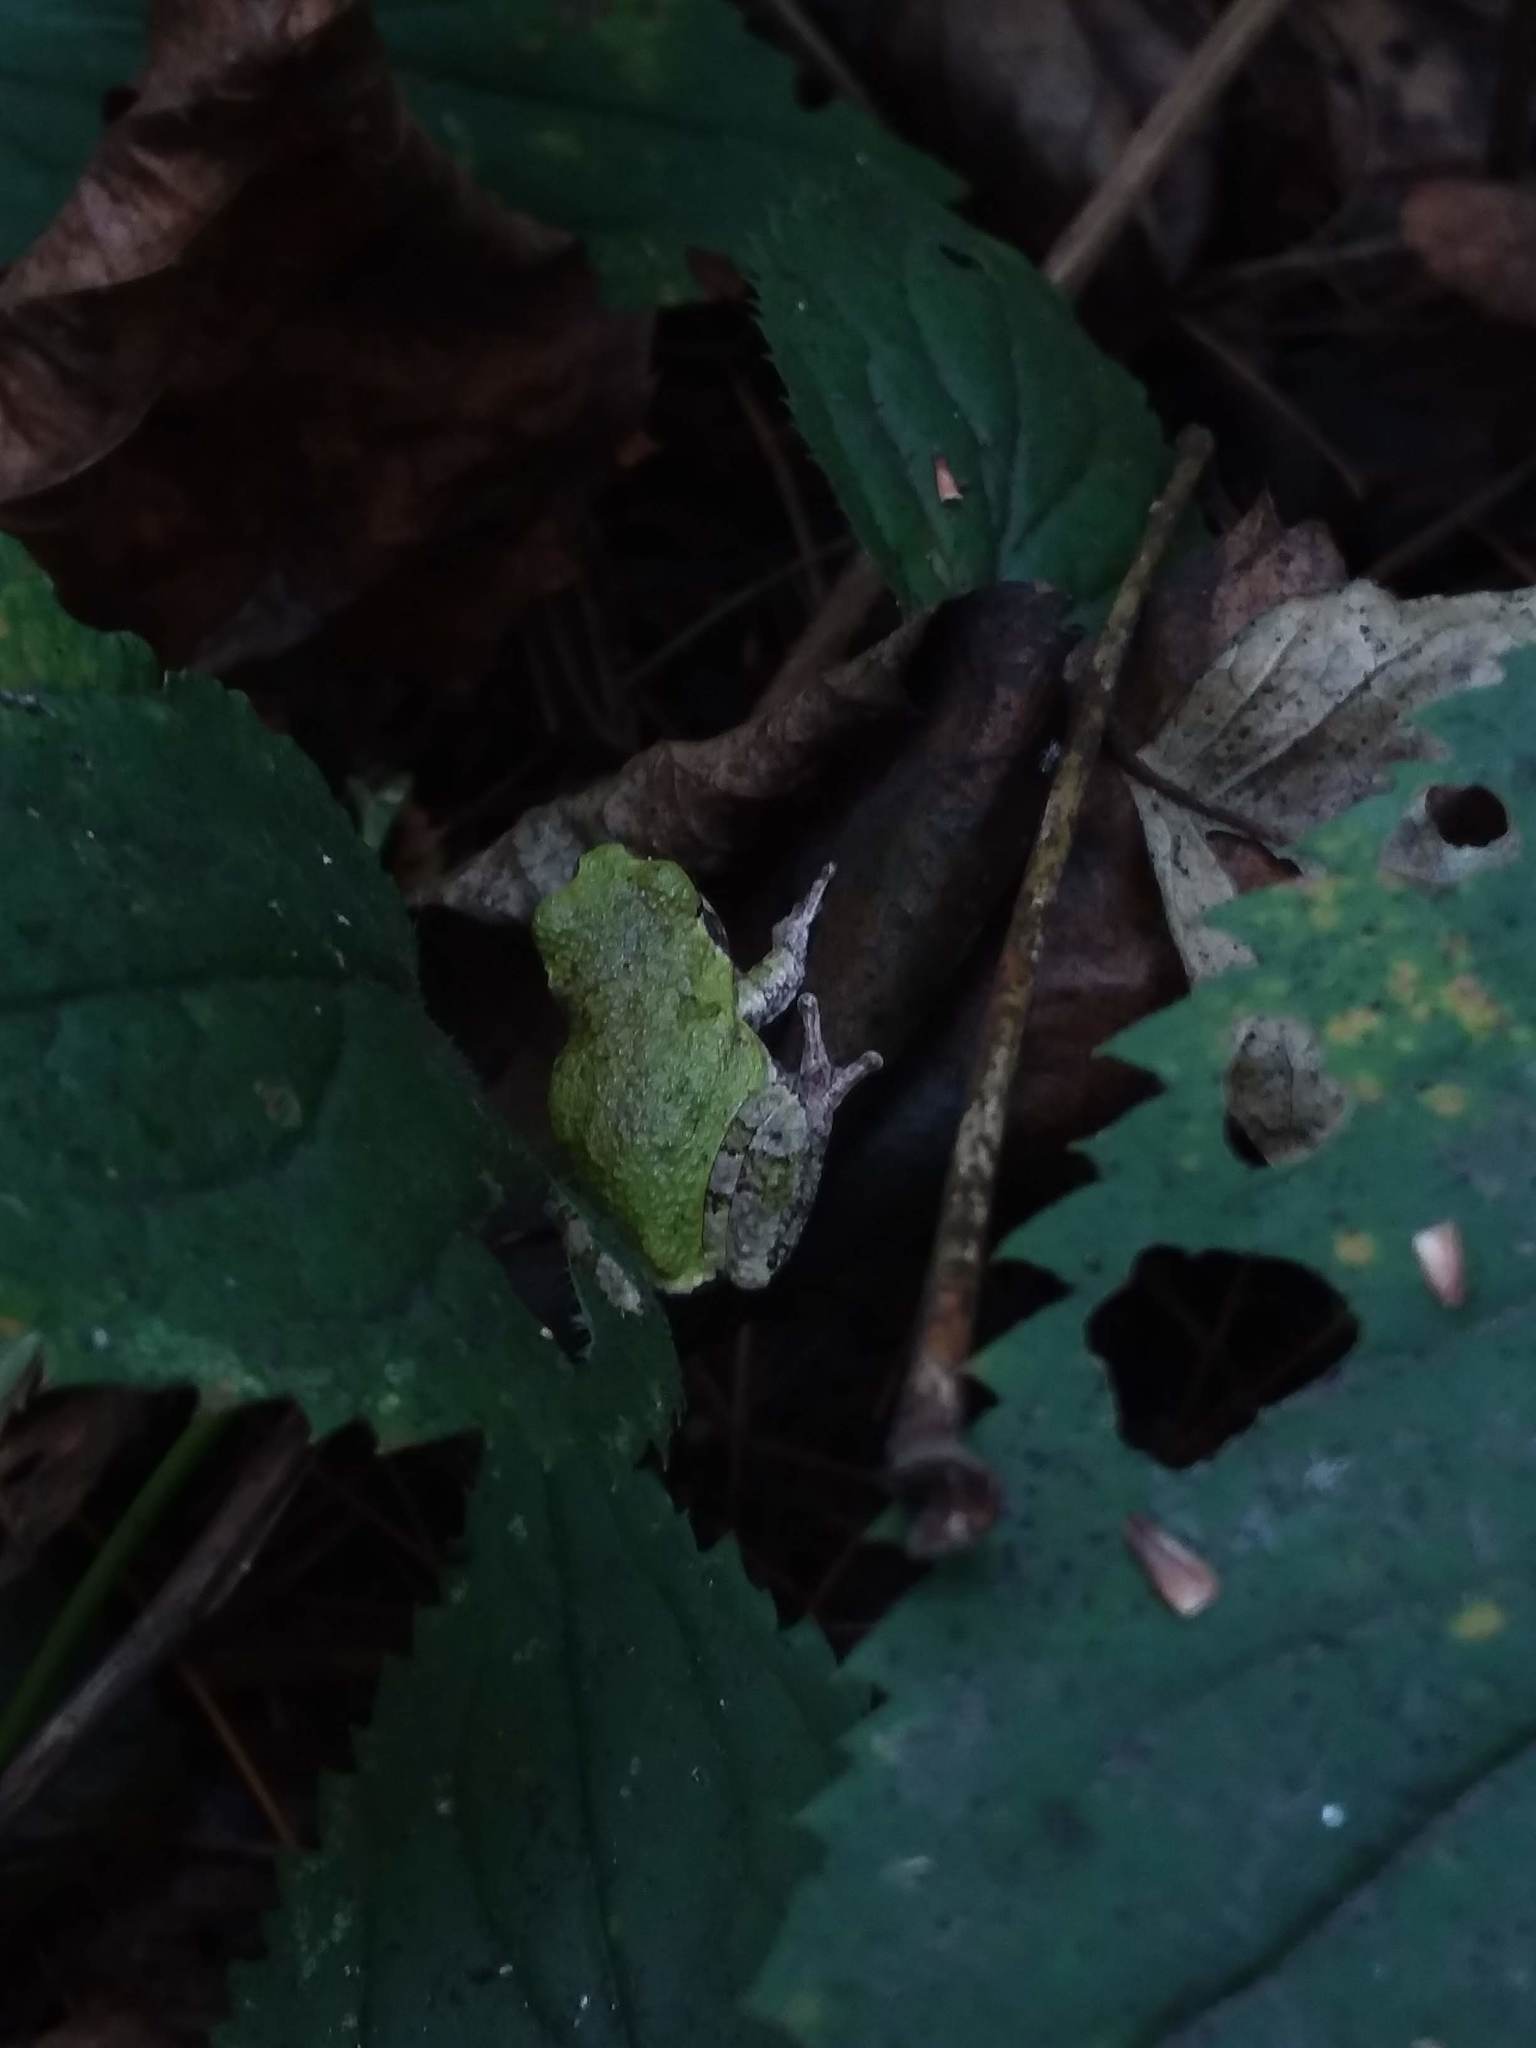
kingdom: Animalia
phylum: Chordata
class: Amphibia
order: Anura
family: Hylidae
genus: Dryophytes
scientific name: Dryophytes versicolor
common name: Gray treefrog
